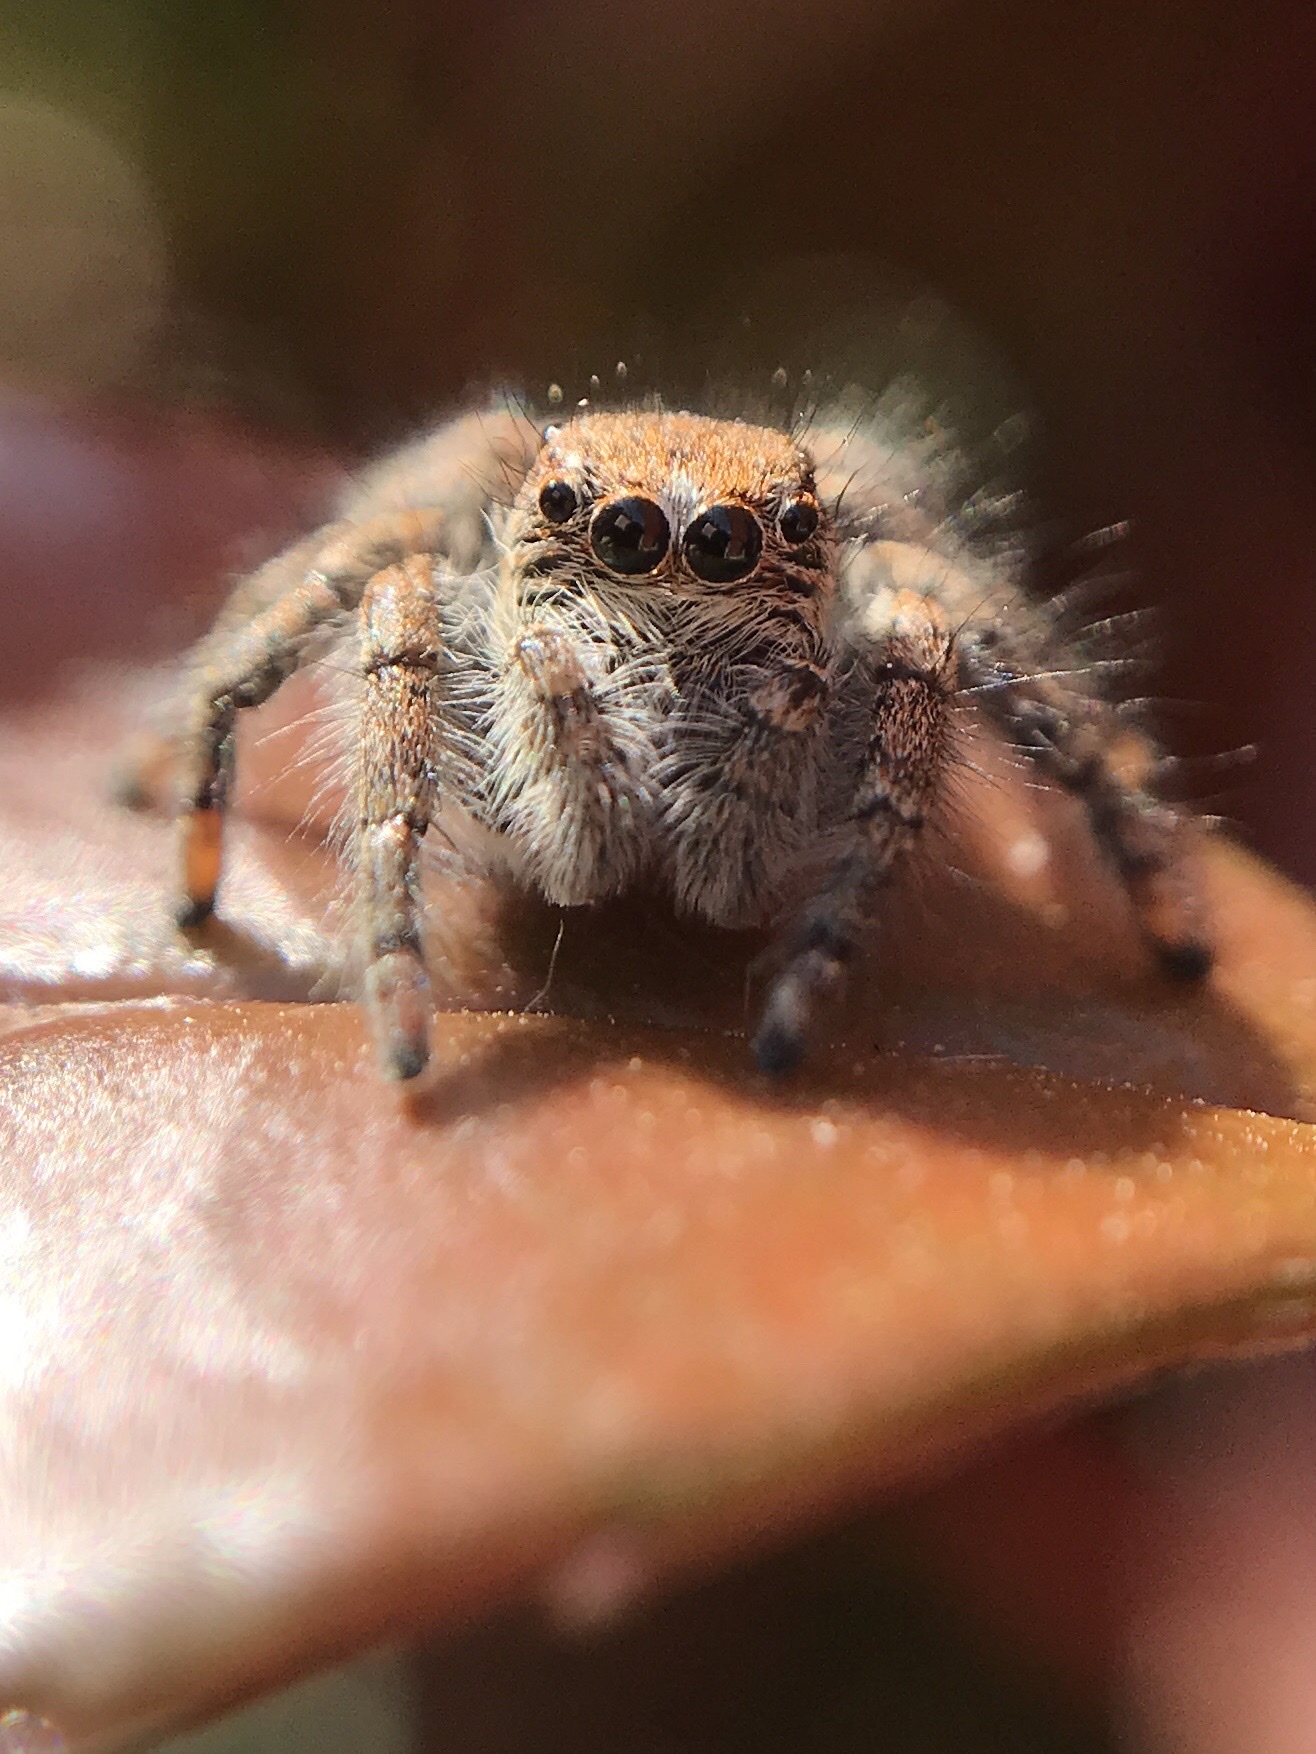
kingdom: Animalia
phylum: Arthropoda
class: Arachnida
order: Araneae
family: Salticidae
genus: Philaeus
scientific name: Philaeus chrysops
